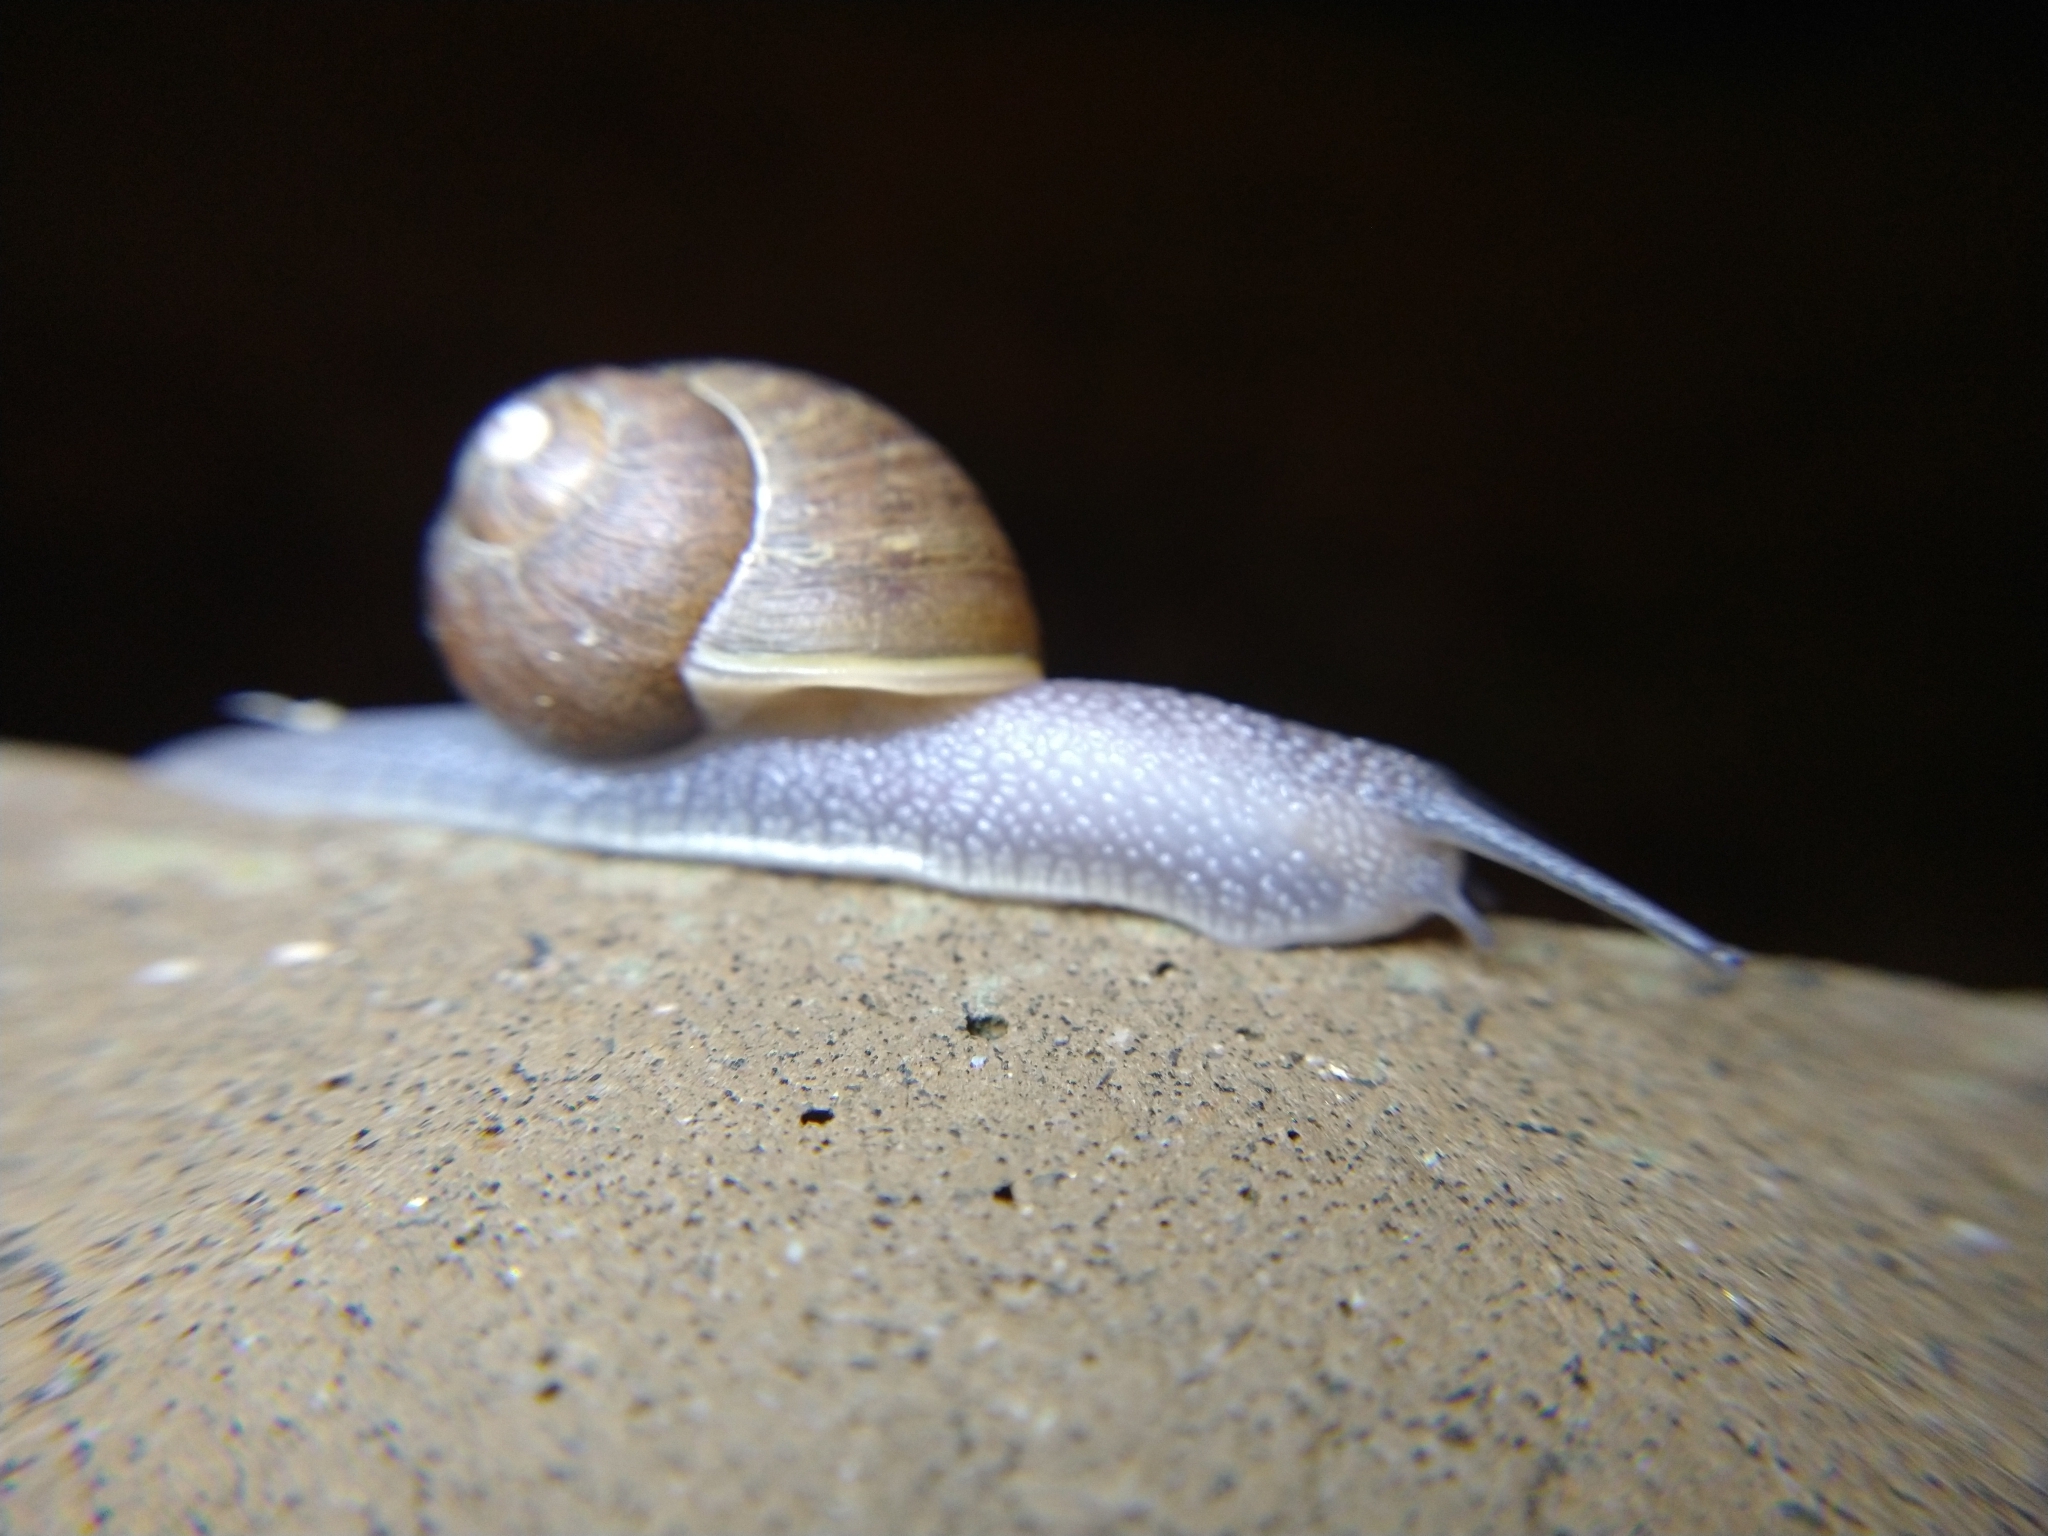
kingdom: Animalia
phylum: Mollusca
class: Gastropoda
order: Stylommatophora
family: Helicidae
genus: Cornu
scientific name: Cornu aspersum
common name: Brown garden snail
